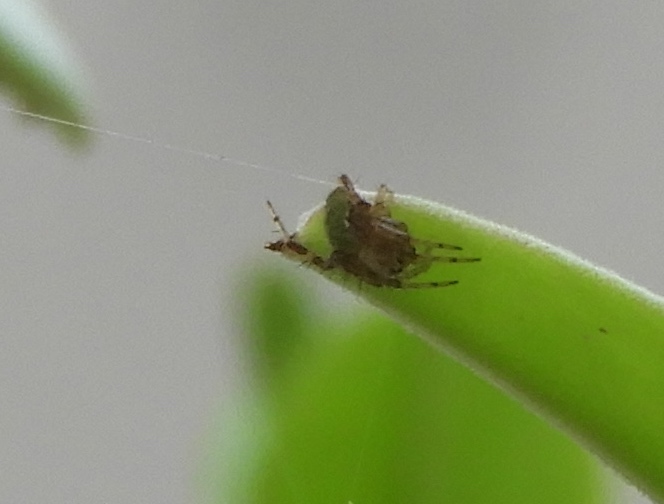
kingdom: Animalia
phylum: Arthropoda
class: Arachnida
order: Araneae
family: Araneidae
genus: Araneus
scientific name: Araneus detrimentosus
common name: Orb weavers
